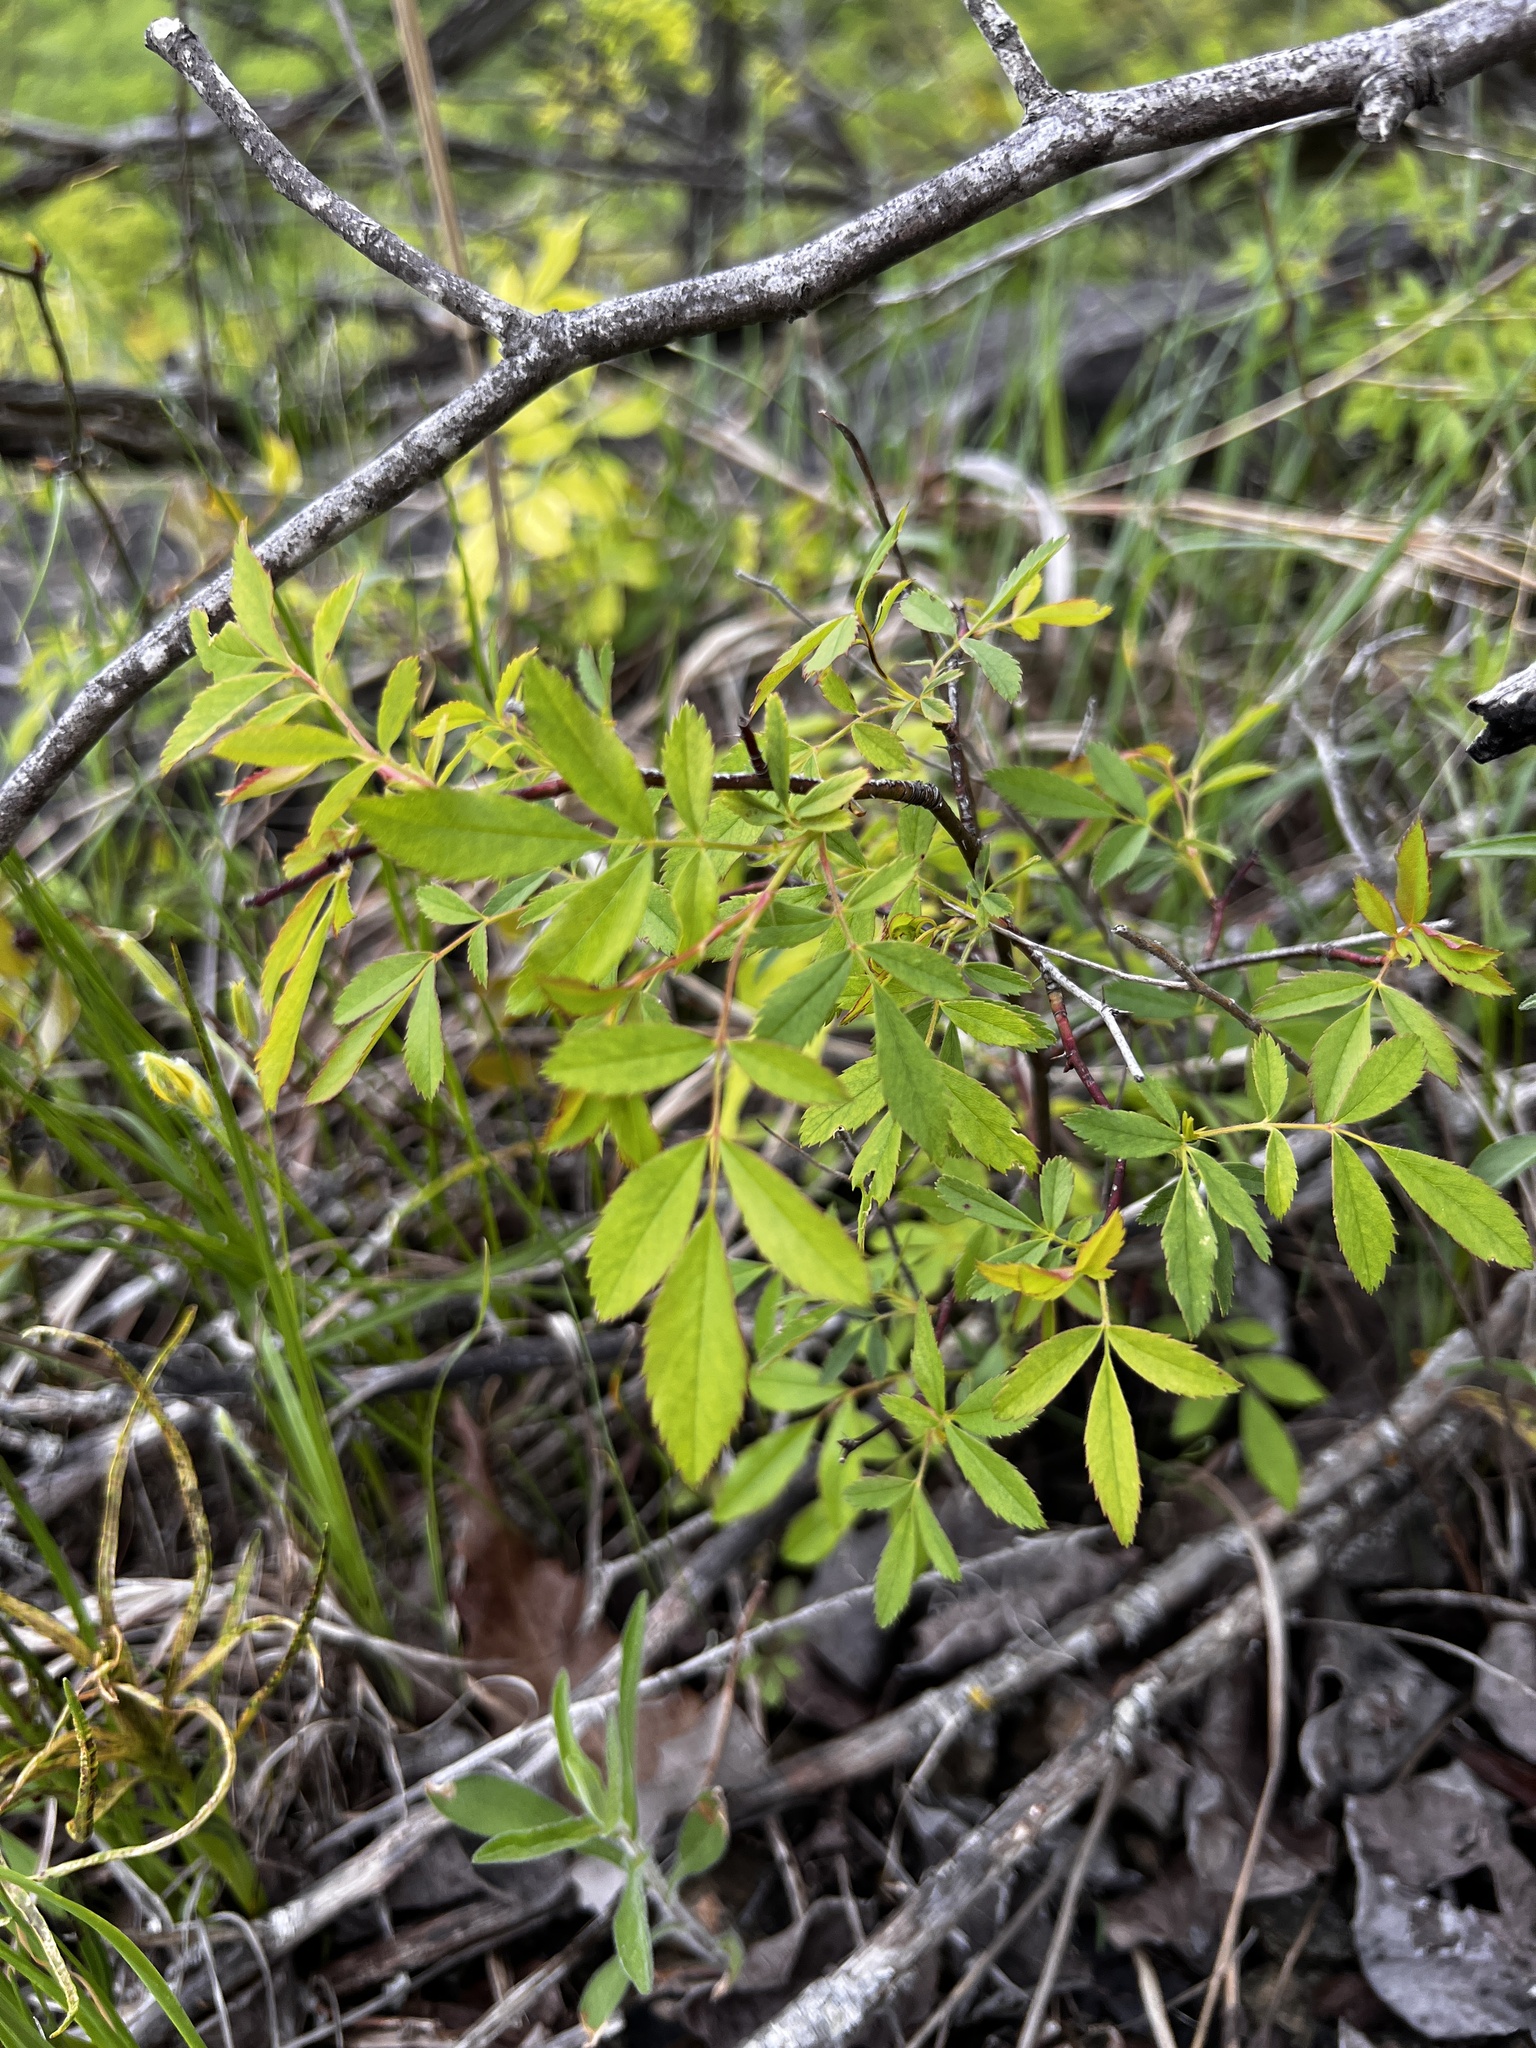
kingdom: Plantae
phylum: Tracheophyta
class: Magnoliopsida
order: Rosales
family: Rosaceae
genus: Rosa
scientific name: Rosa carolina
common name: Pasture rose
